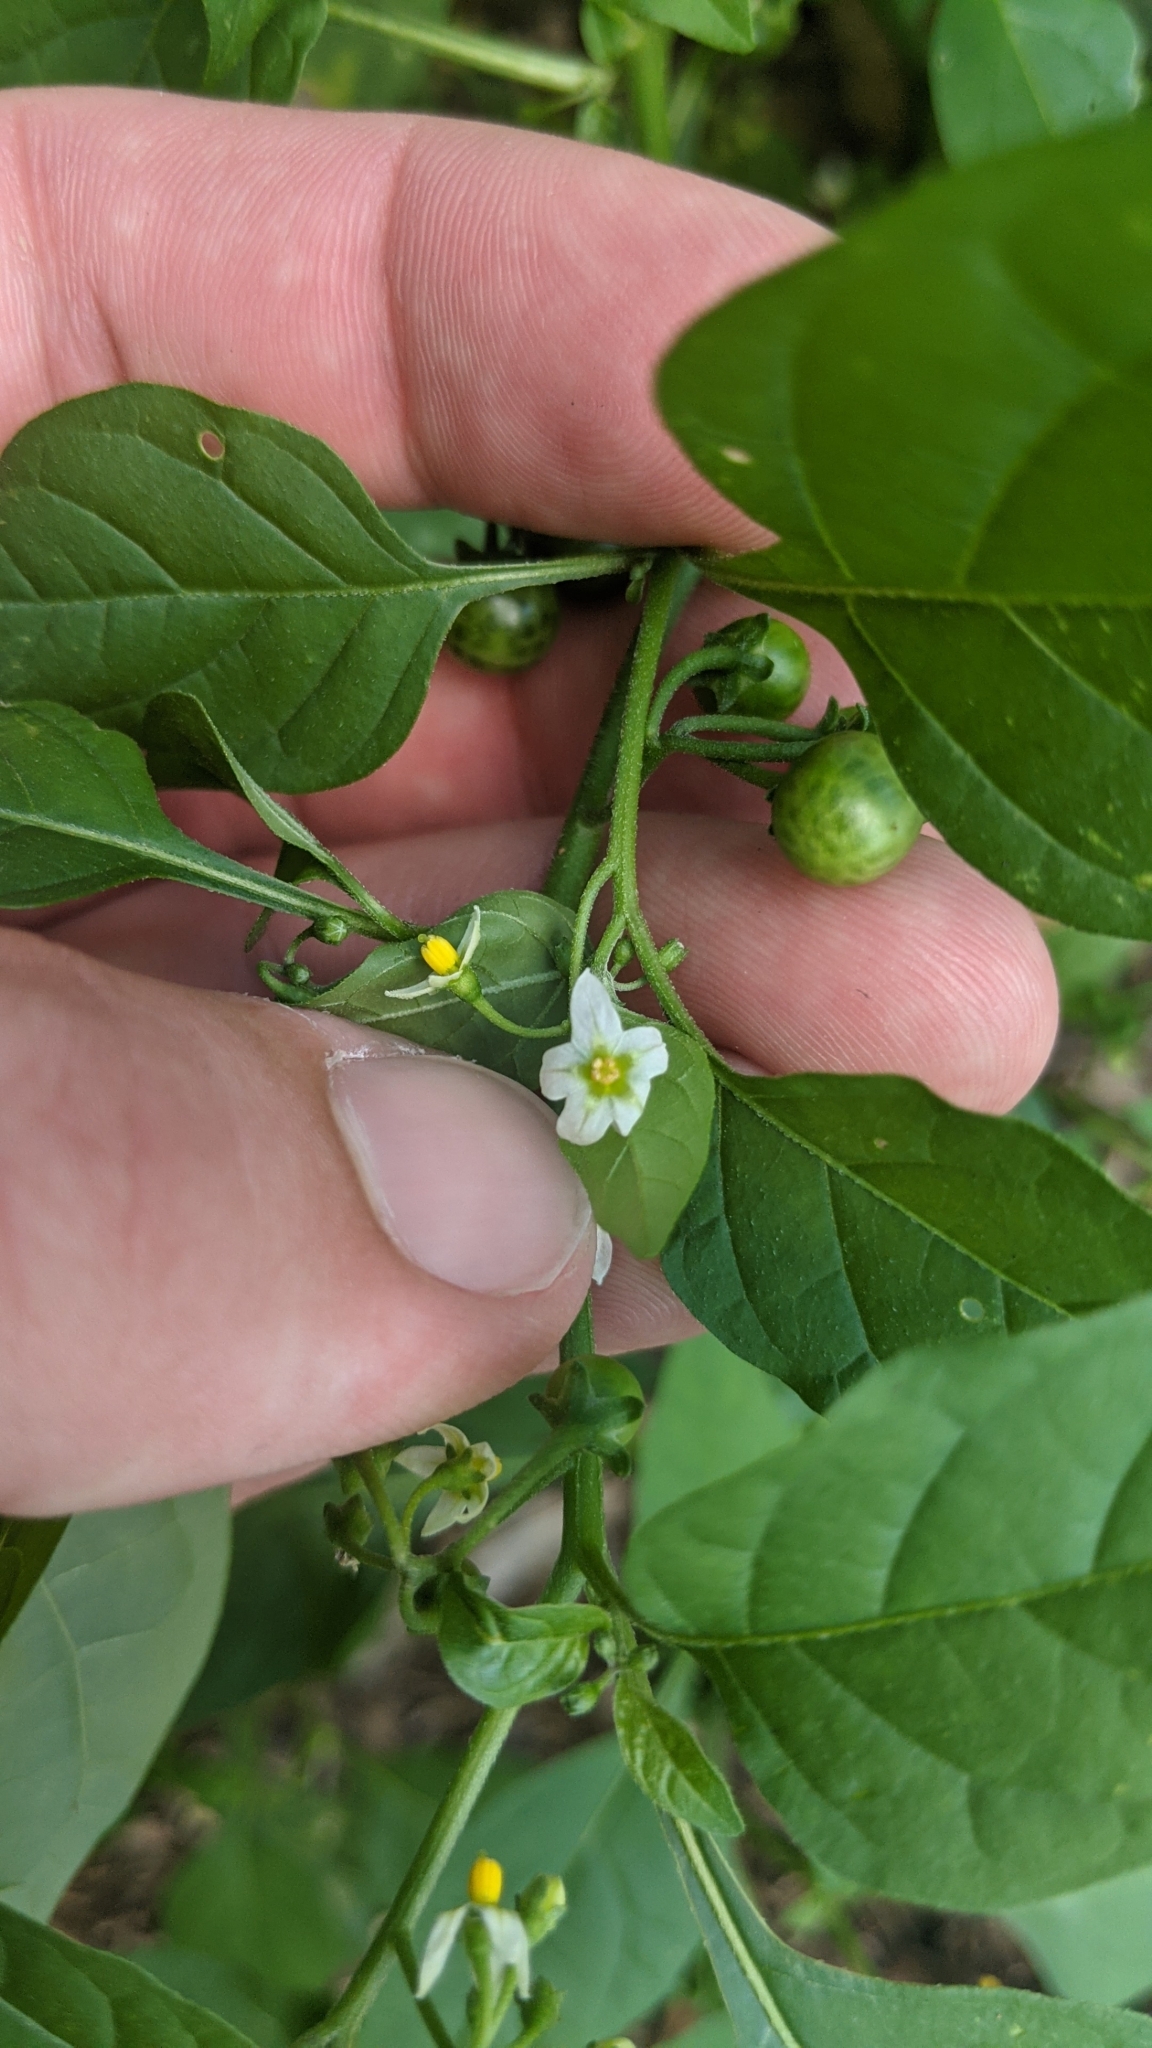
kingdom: Plantae
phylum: Tracheophyta
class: Magnoliopsida
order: Solanales
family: Solanaceae
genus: Solanum
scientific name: Solanum emulans
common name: Eastern black nightshade
